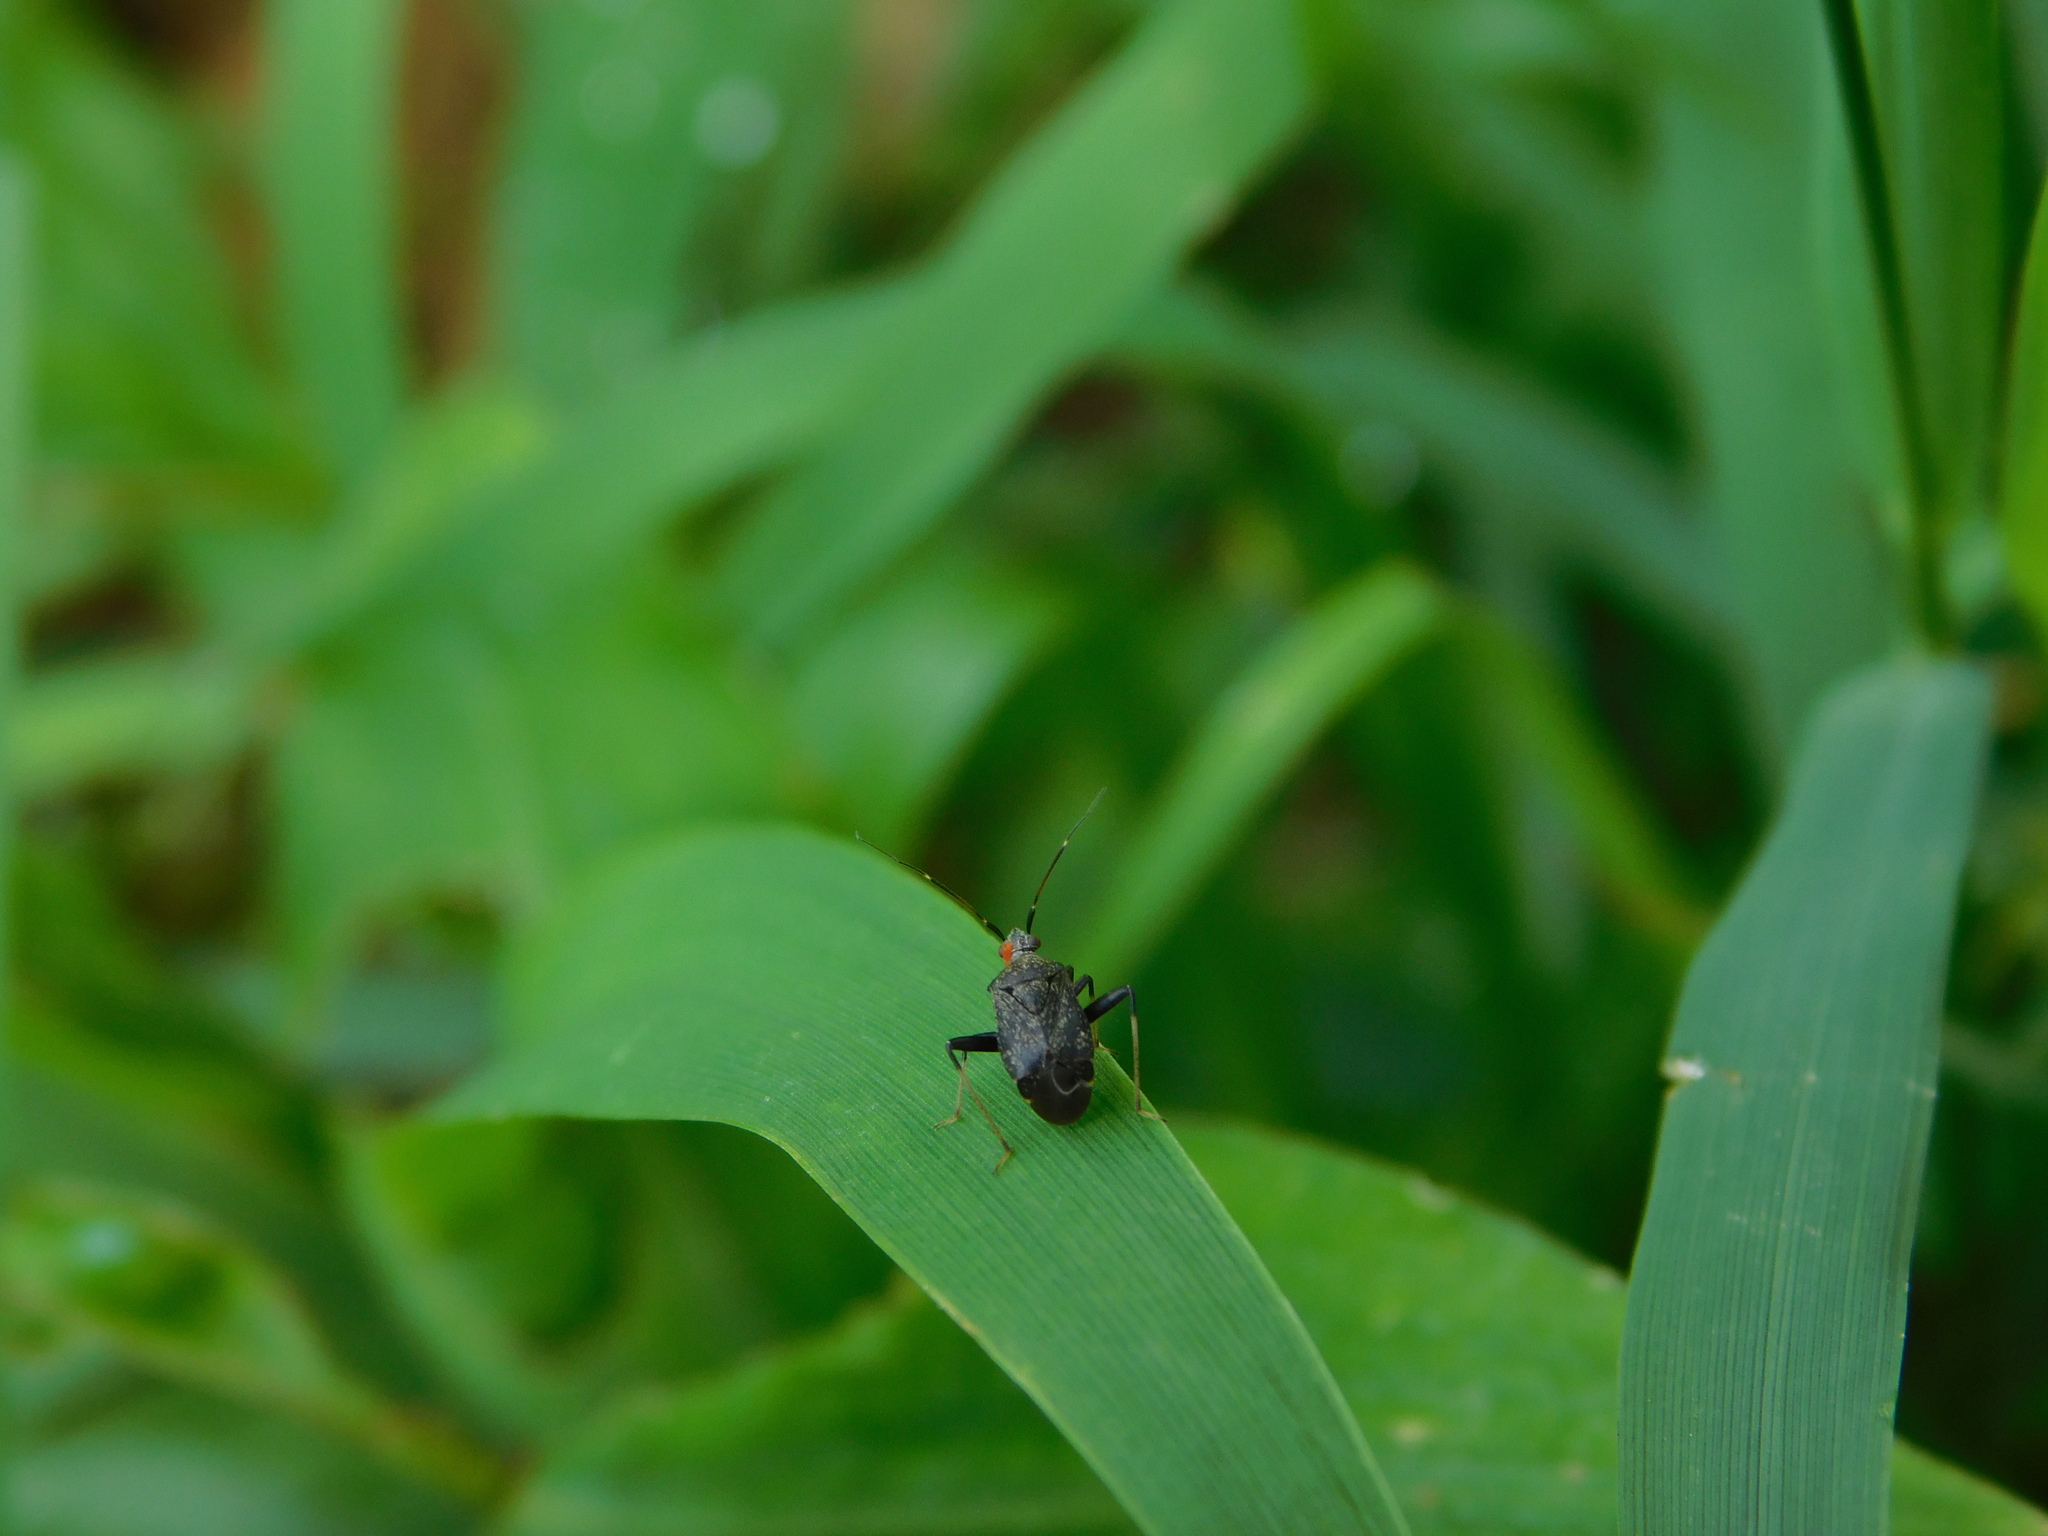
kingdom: Animalia
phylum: Arthropoda
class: Insecta
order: Hemiptera
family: Miridae
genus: Proboscidocoris
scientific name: Proboscidocoris malayus
